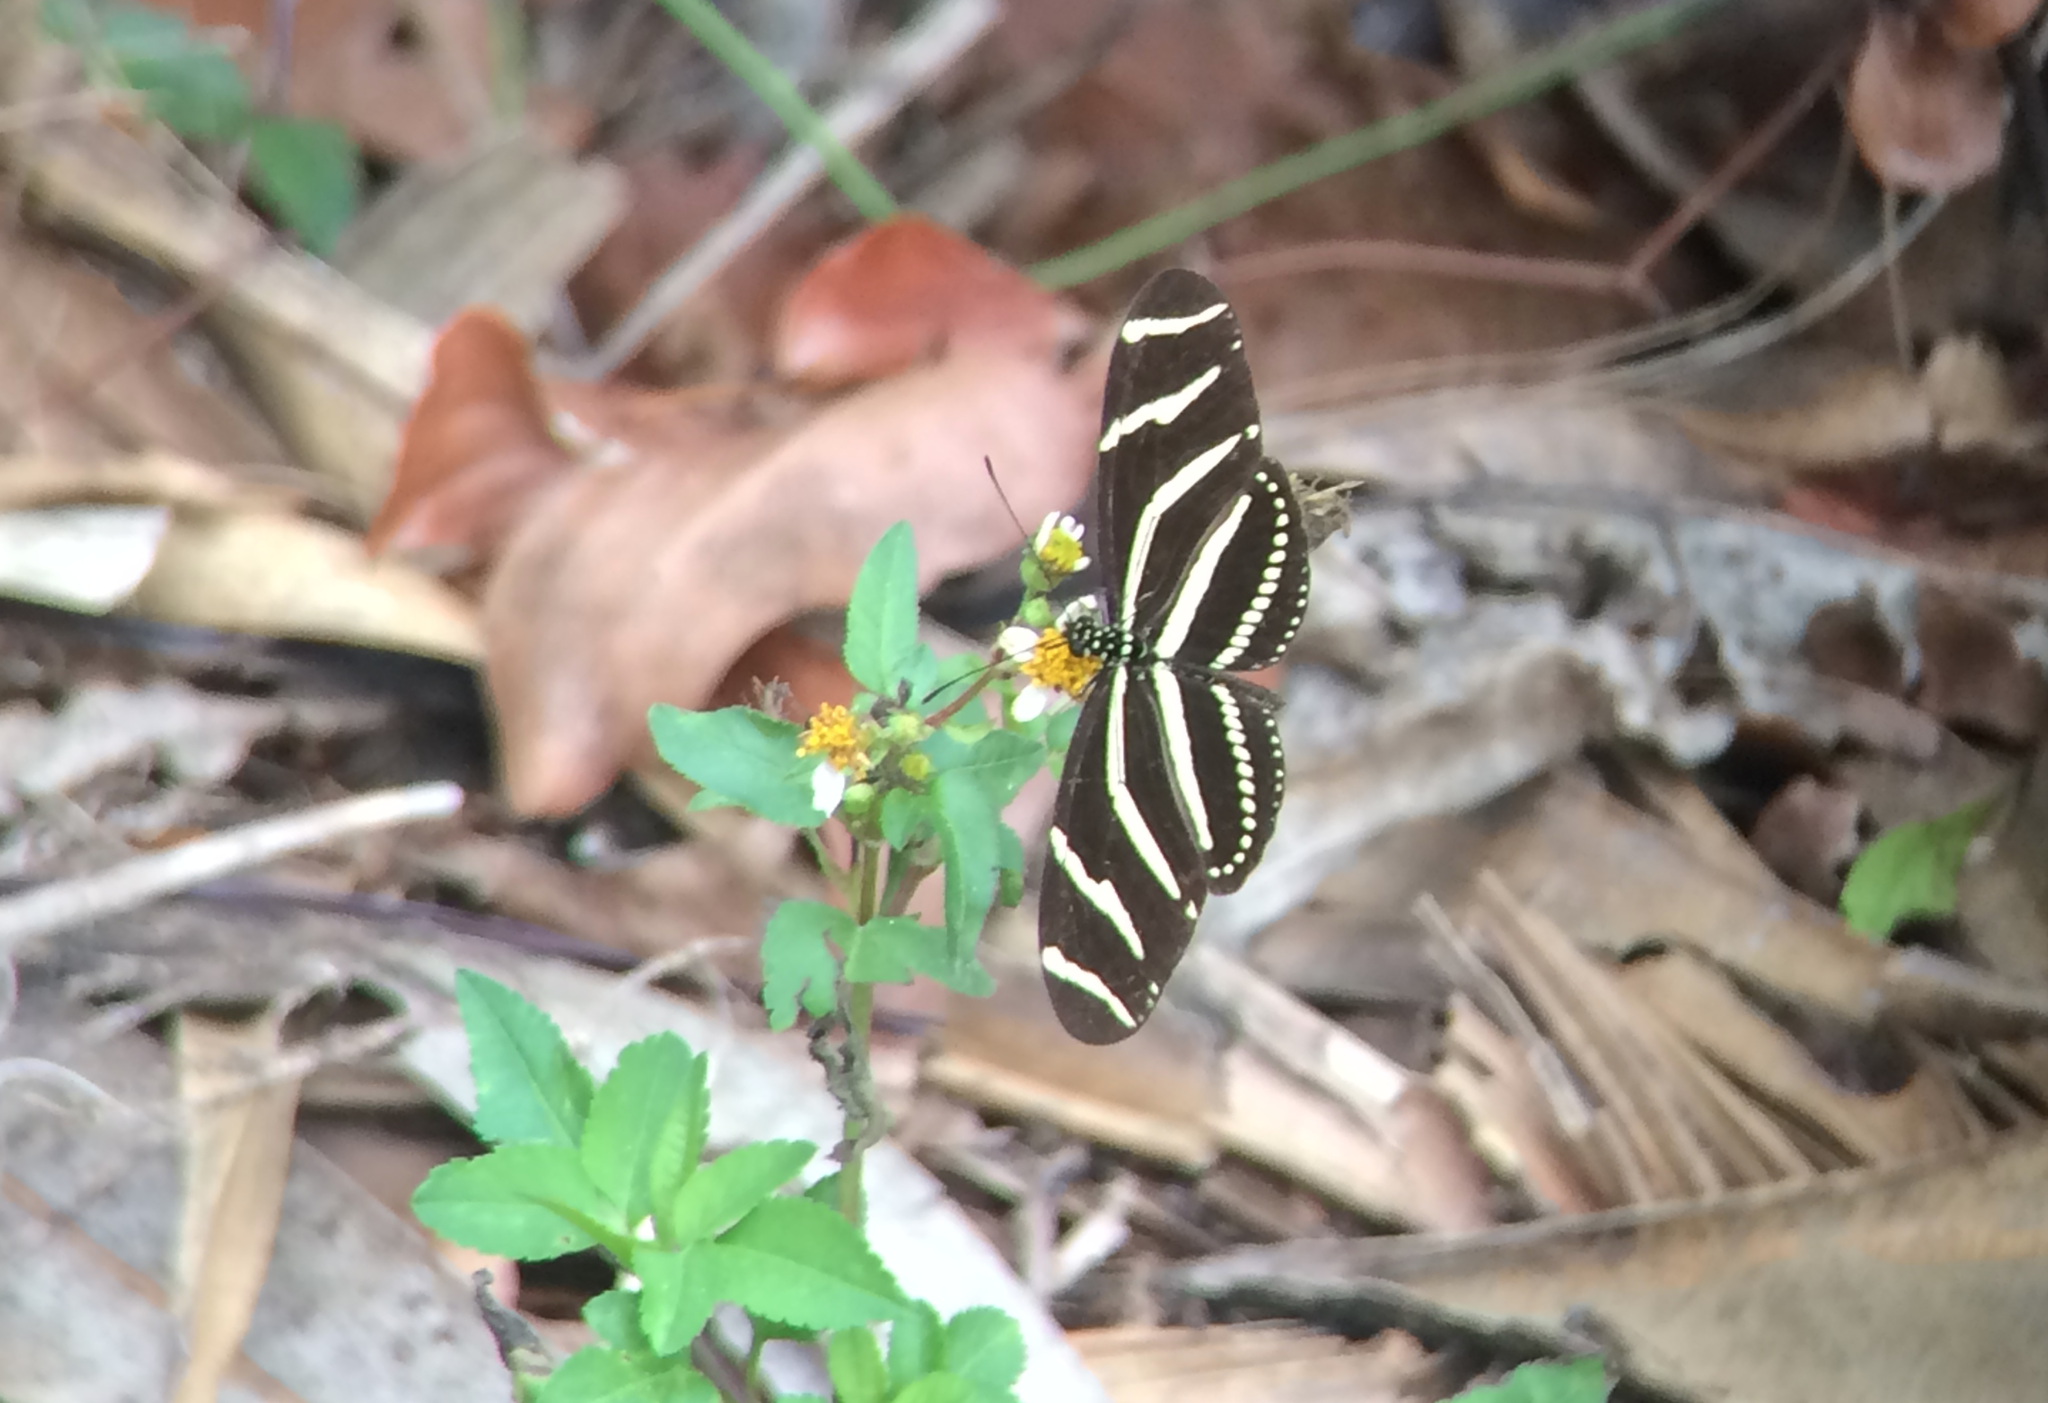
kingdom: Animalia
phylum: Arthropoda
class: Insecta
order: Lepidoptera
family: Nymphalidae
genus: Heliconius
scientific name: Heliconius charithonia
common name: Zebra long wing
